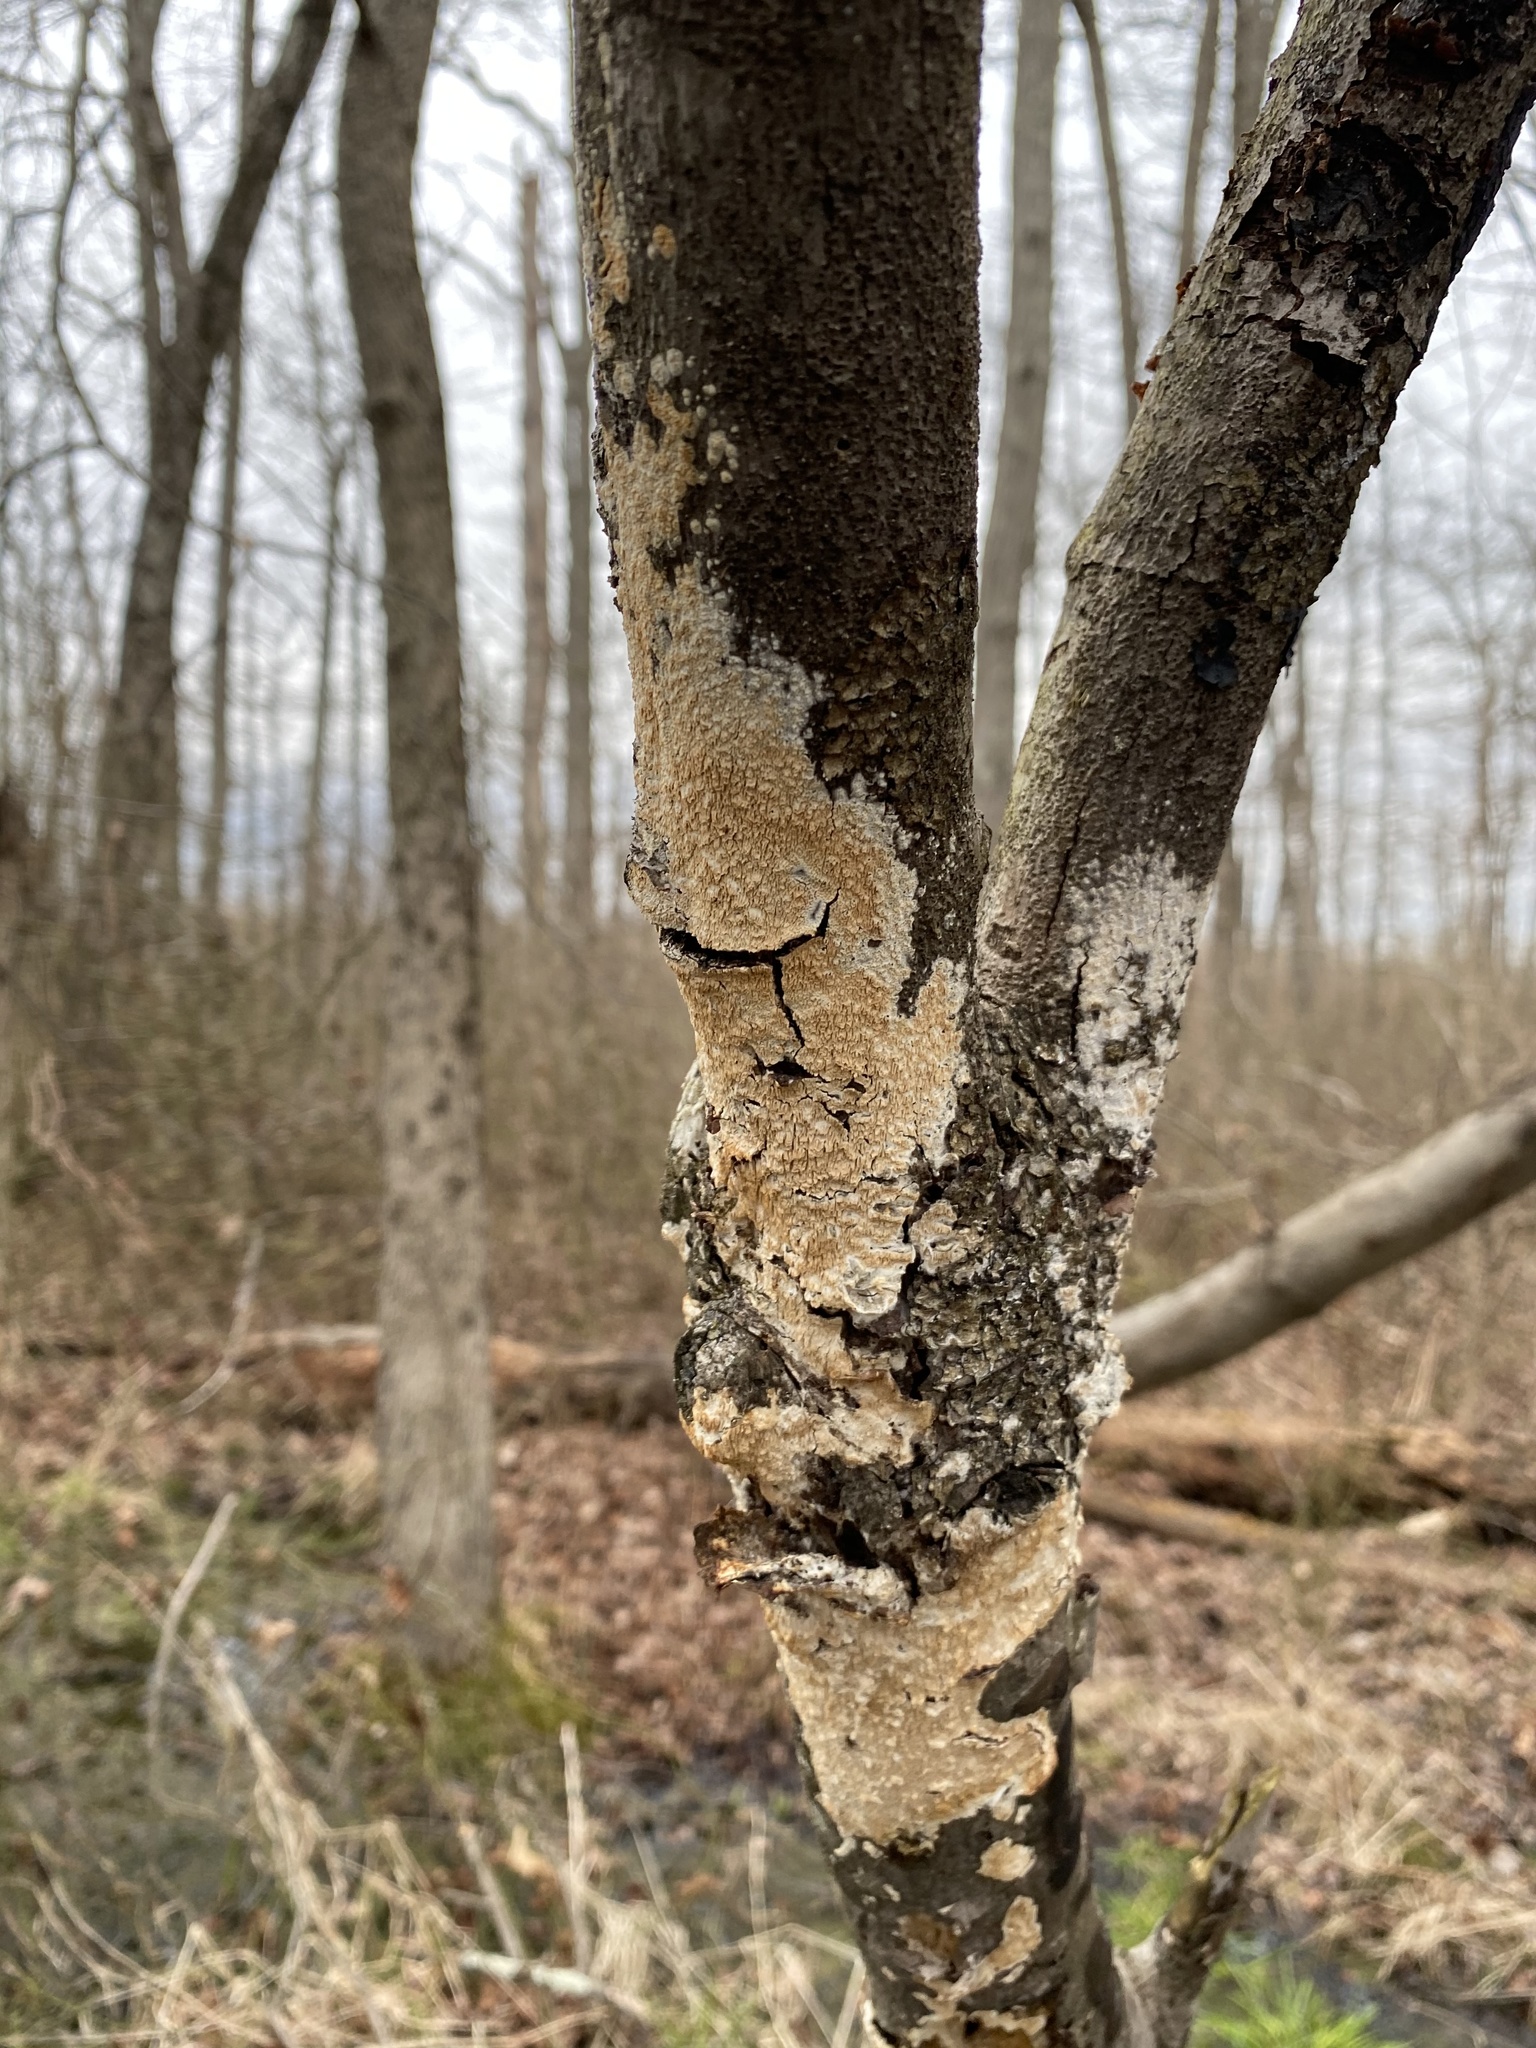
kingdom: Fungi
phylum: Basidiomycota
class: Agaricomycetes
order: Polyporales
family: Irpicaceae
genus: Irpex
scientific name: Irpex lacteus
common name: Milk-white toothed polypore
